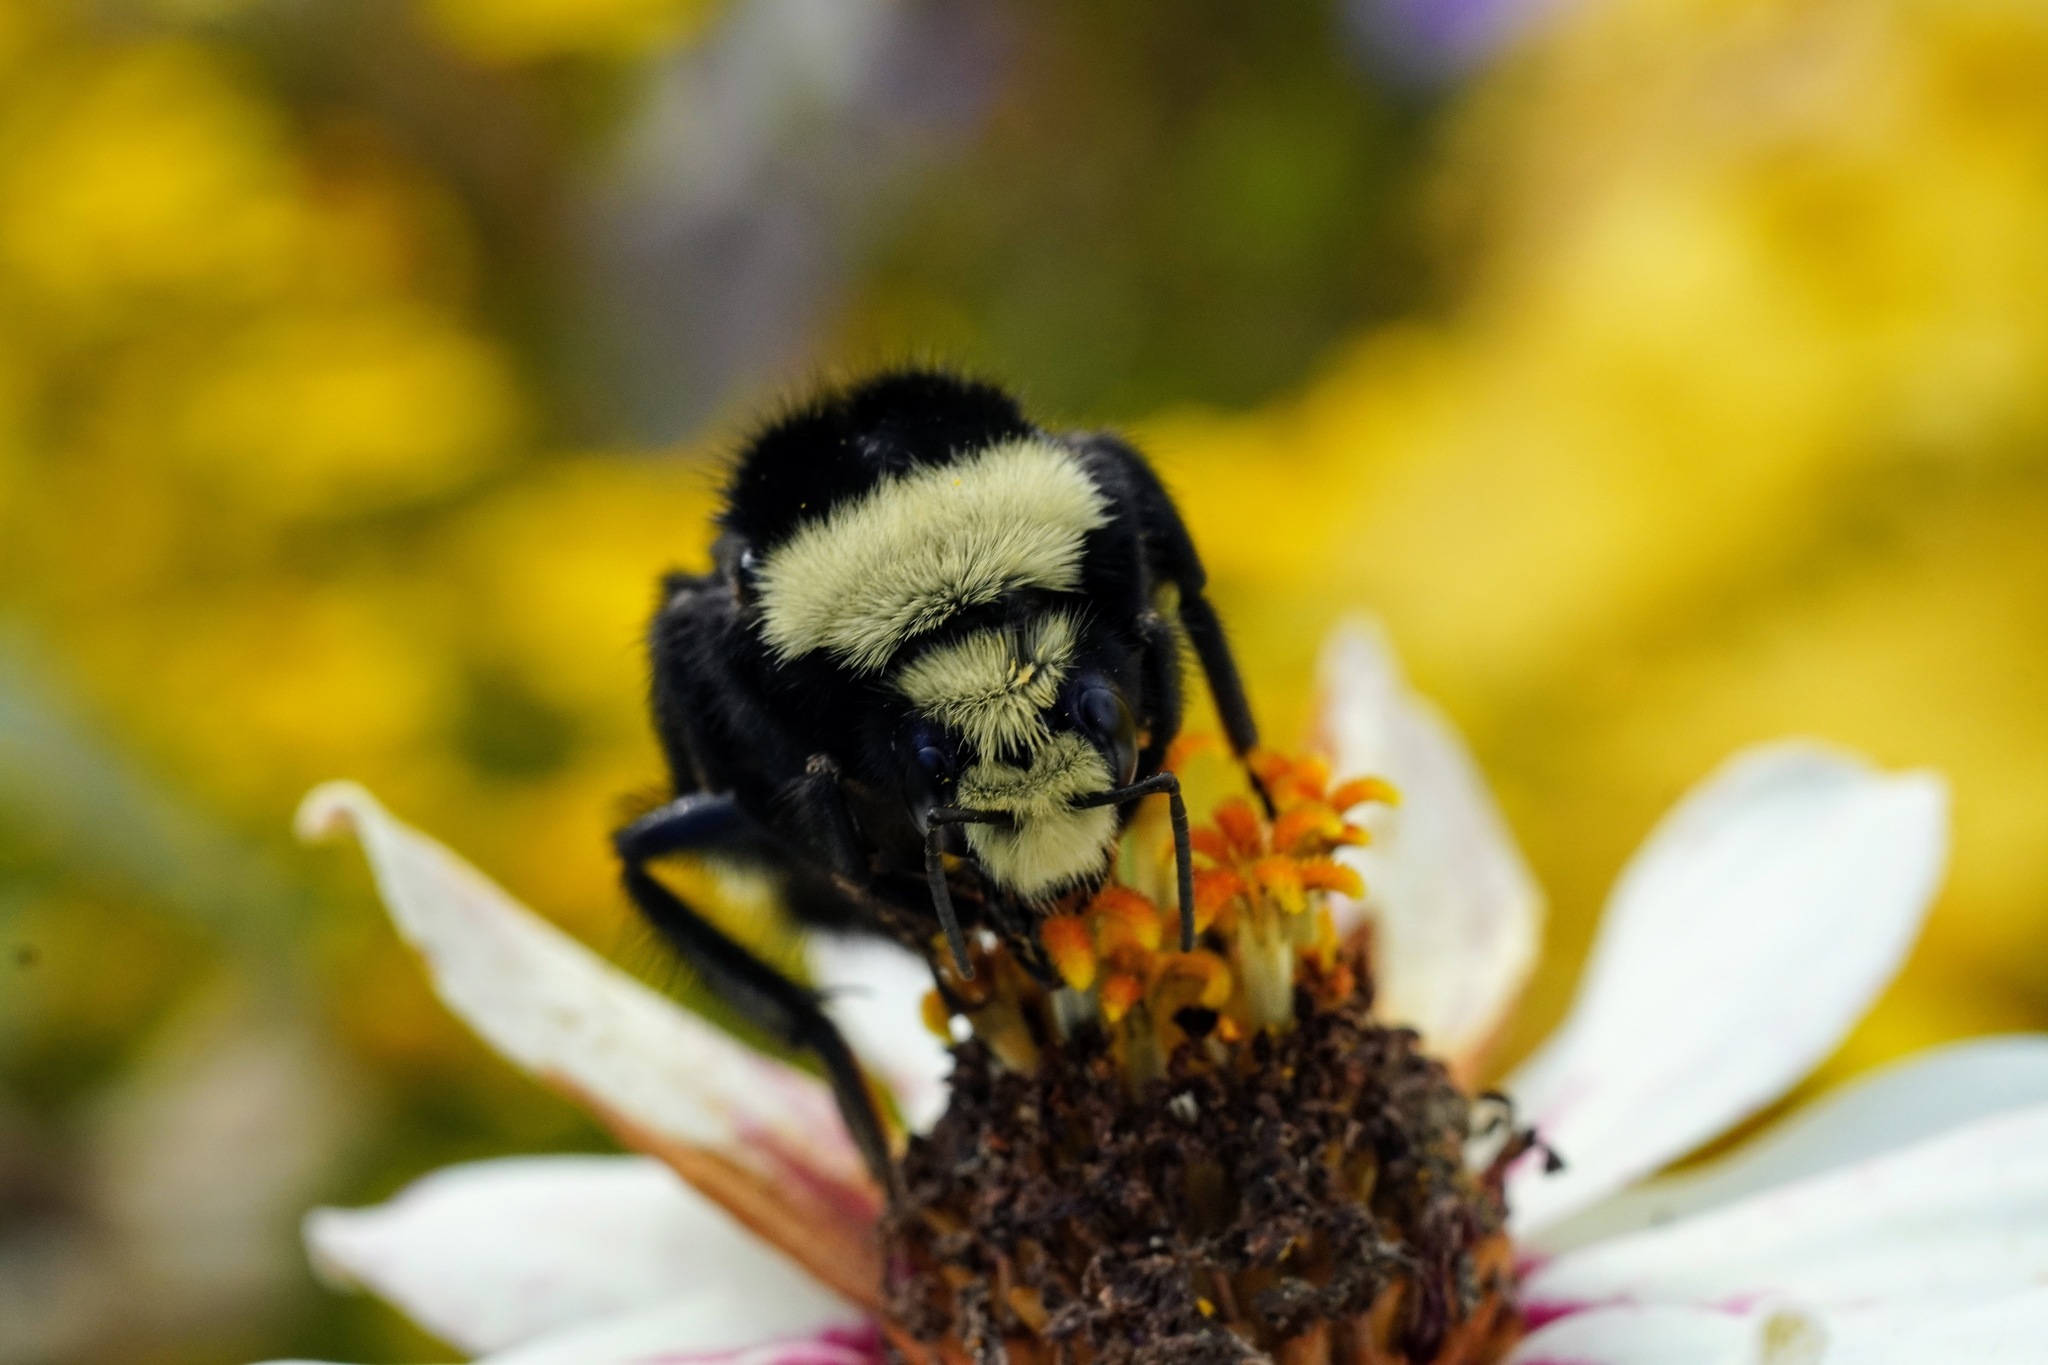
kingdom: Animalia
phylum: Arthropoda
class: Insecta
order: Hymenoptera
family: Apidae
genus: Bombus
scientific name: Bombus vosnesenskii
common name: Vosnesensky bumble bee
